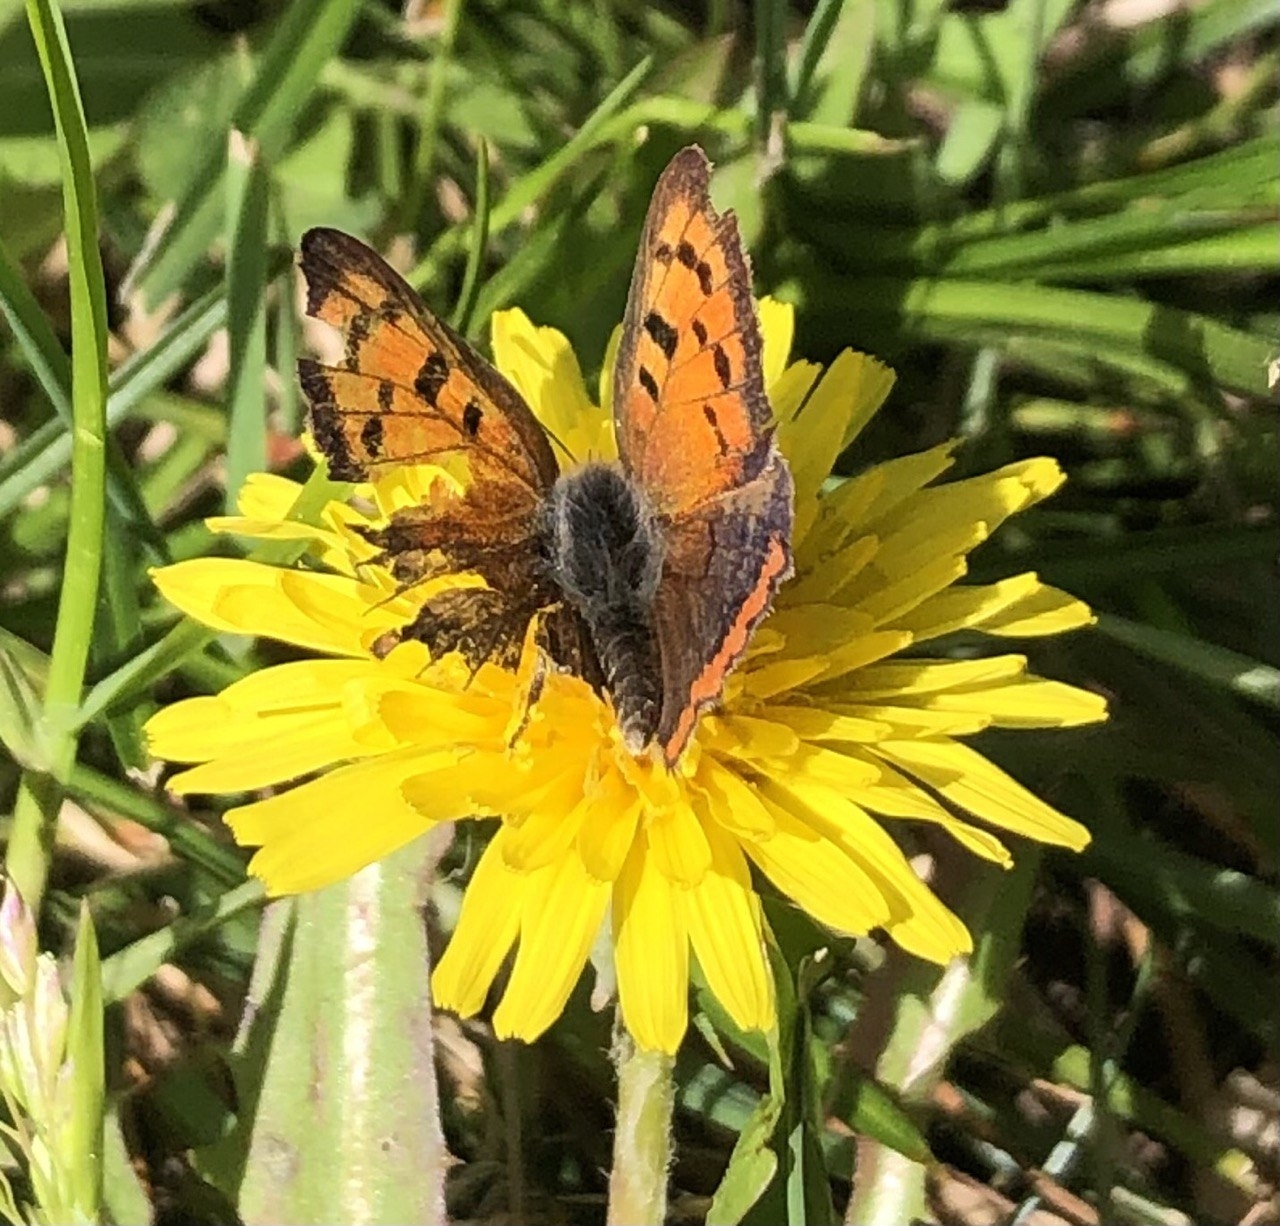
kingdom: Animalia
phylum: Arthropoda
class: Insecta
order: Lepidoptera
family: Lycaenidae
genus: Lycaena
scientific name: Lycaena phlaeas
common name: Small copper
